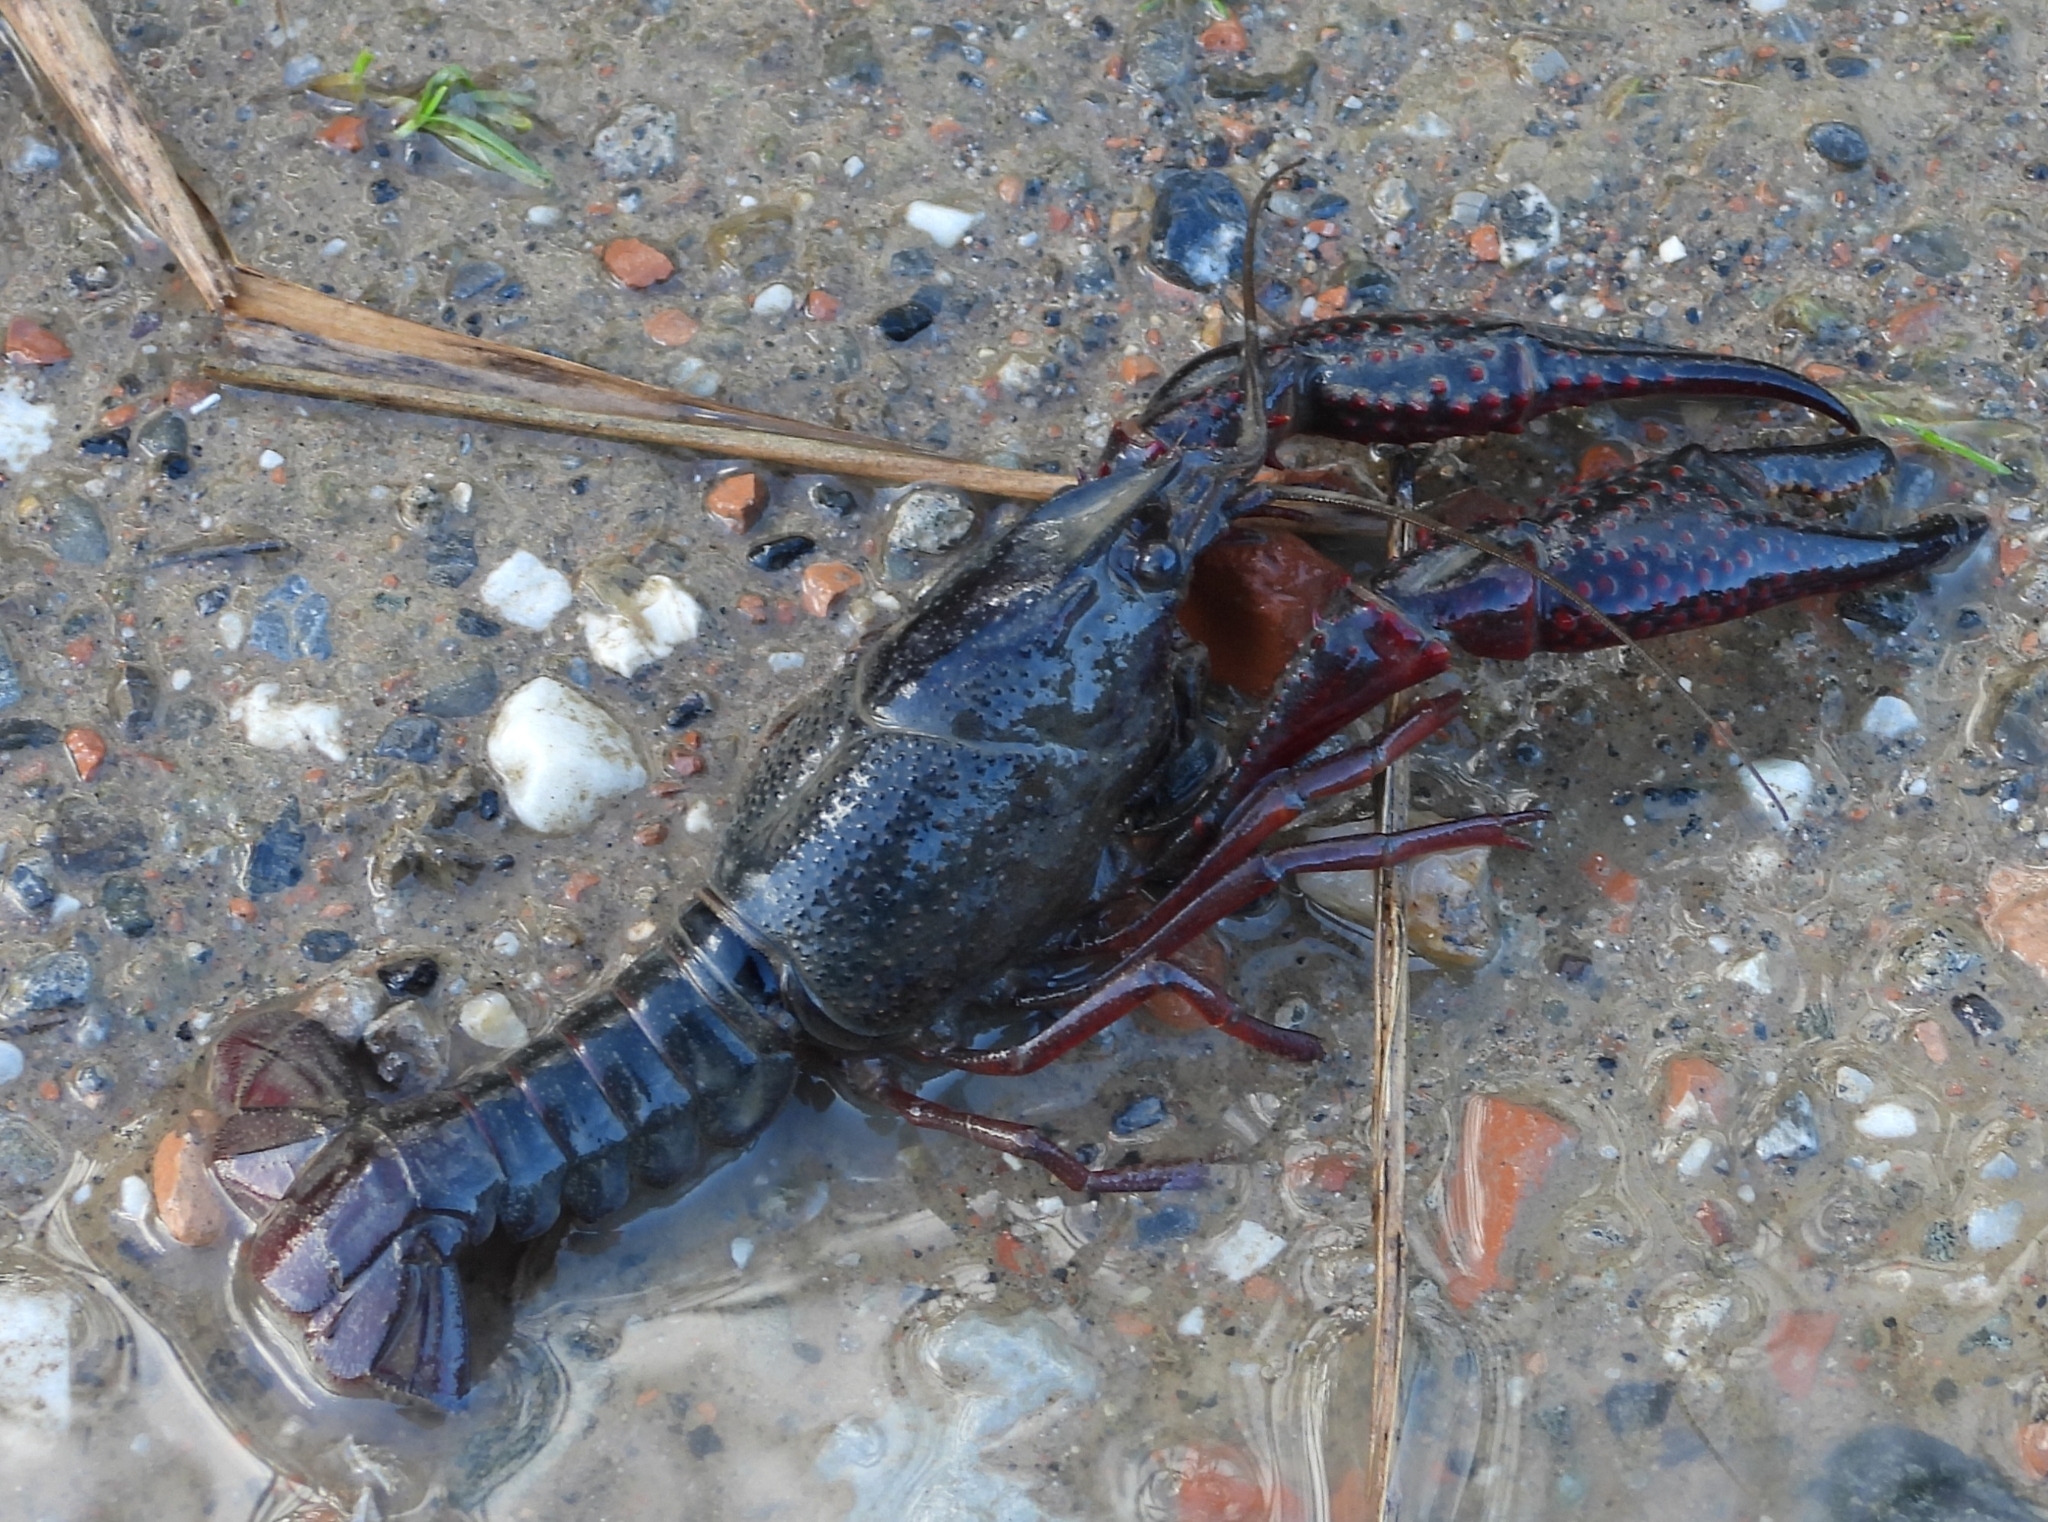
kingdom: Animalia
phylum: Arthropoda
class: Malacostraca
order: Decapoda
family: Cambaridae
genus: Procambarus
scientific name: Procambarus clarkii
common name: Red swamp crayfish
